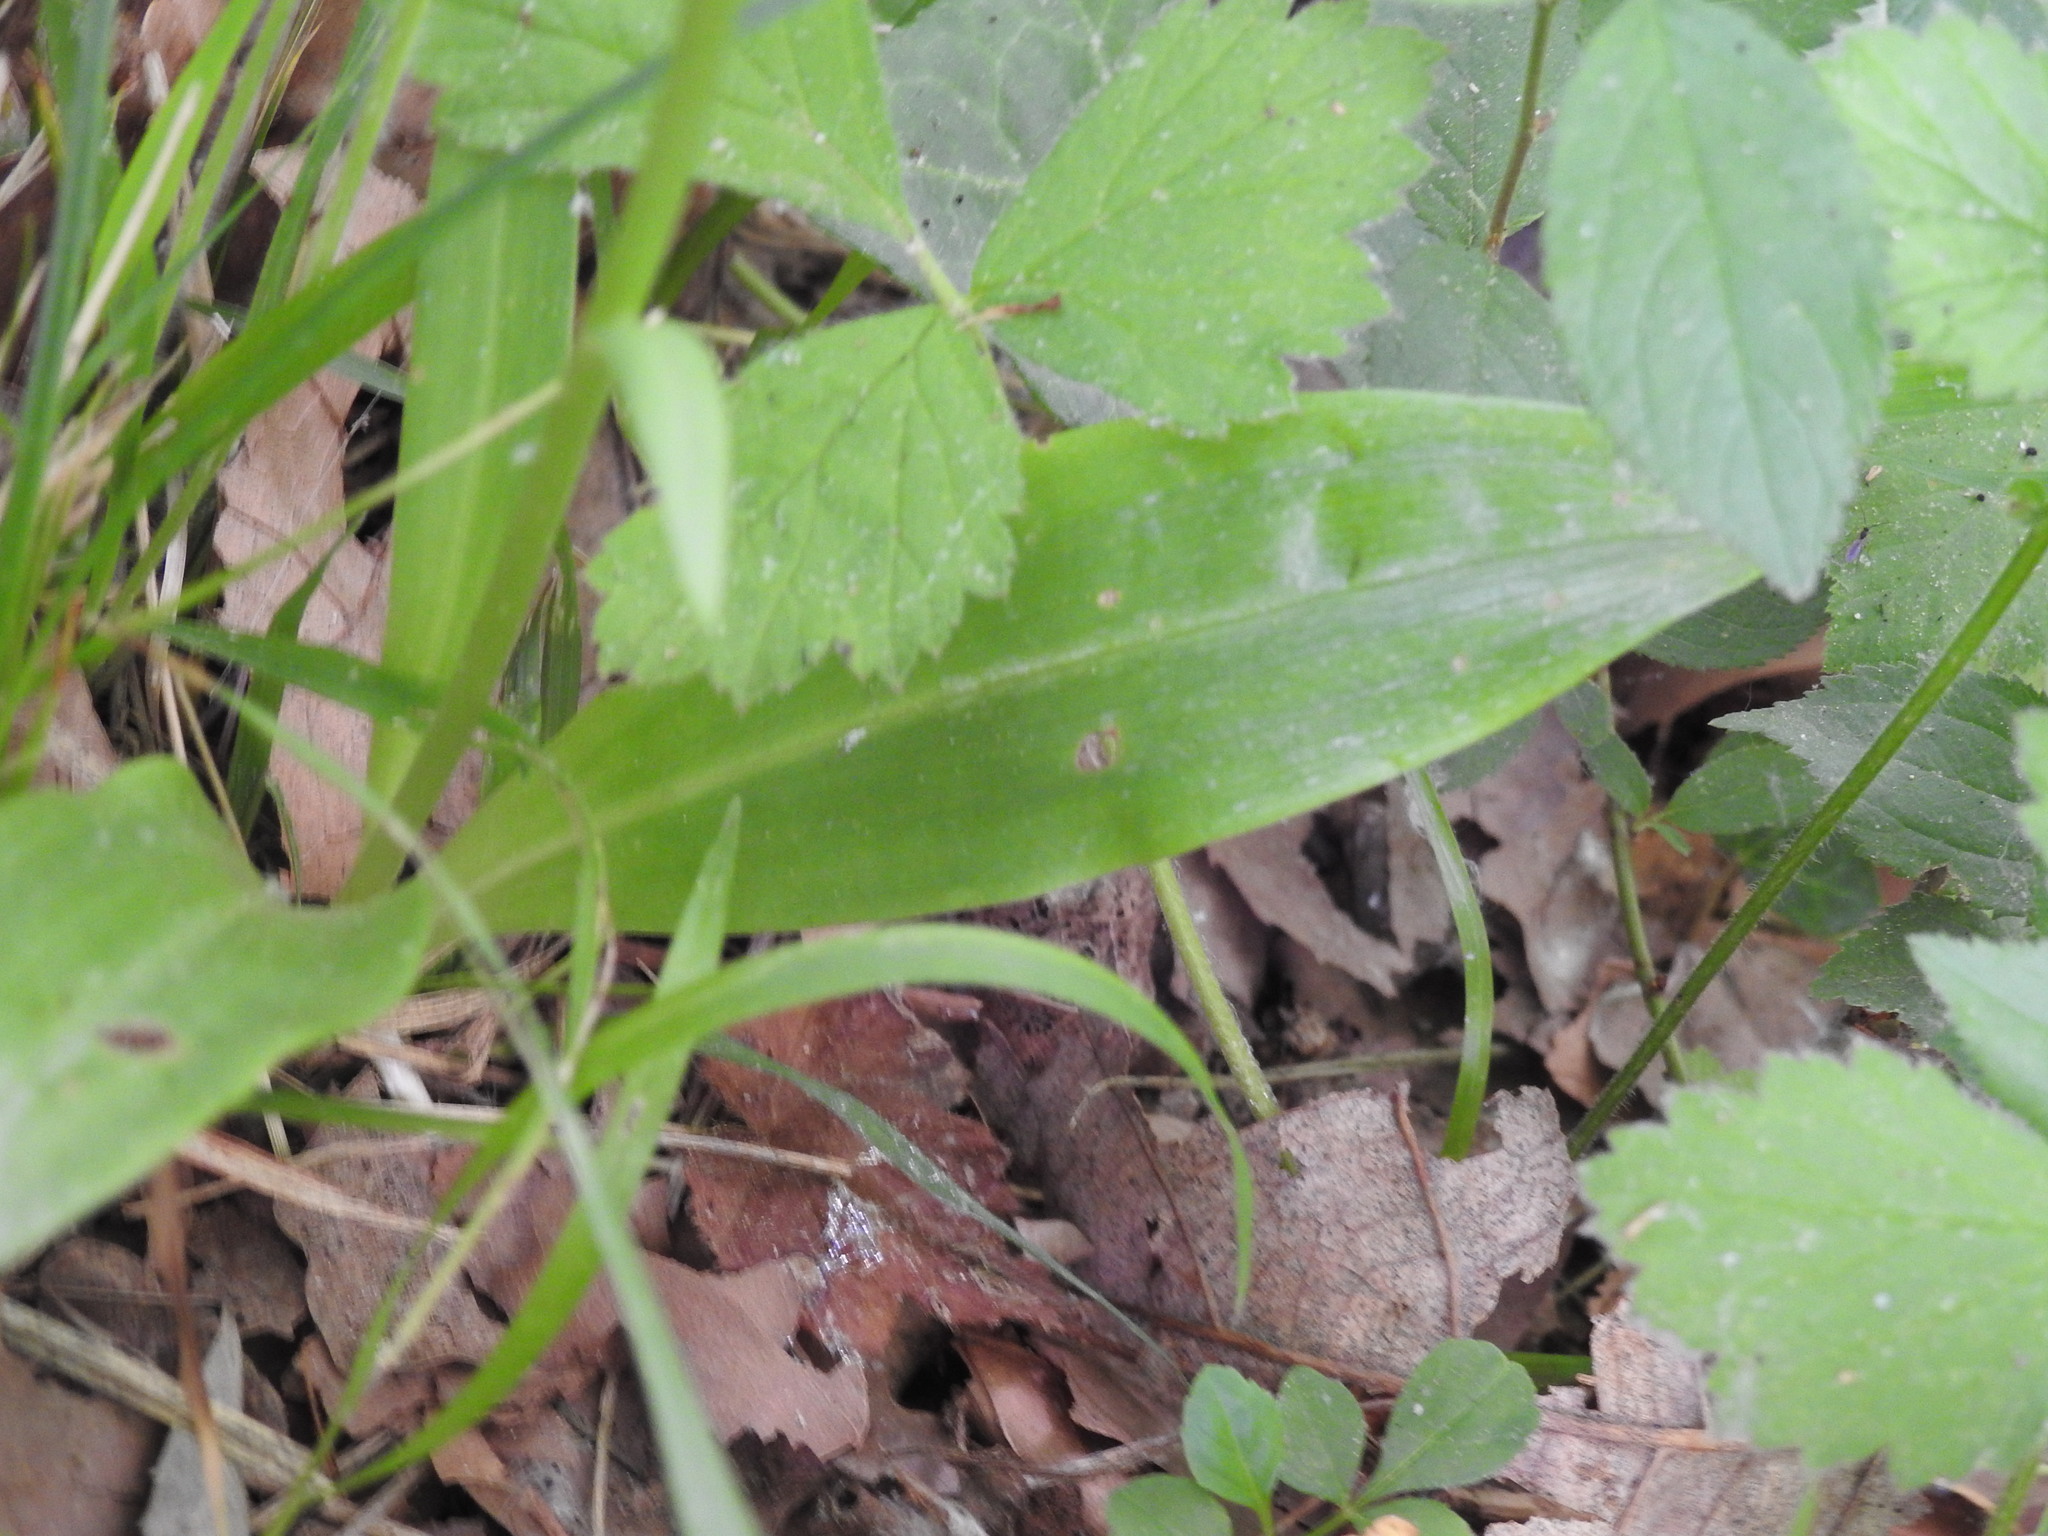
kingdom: Plantae
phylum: Tracheophyta
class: Liliopsida
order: Asparagales
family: Orchidaceae
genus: Platanthera
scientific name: Platanthera bifolia
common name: Lesser butterfly-orchid
